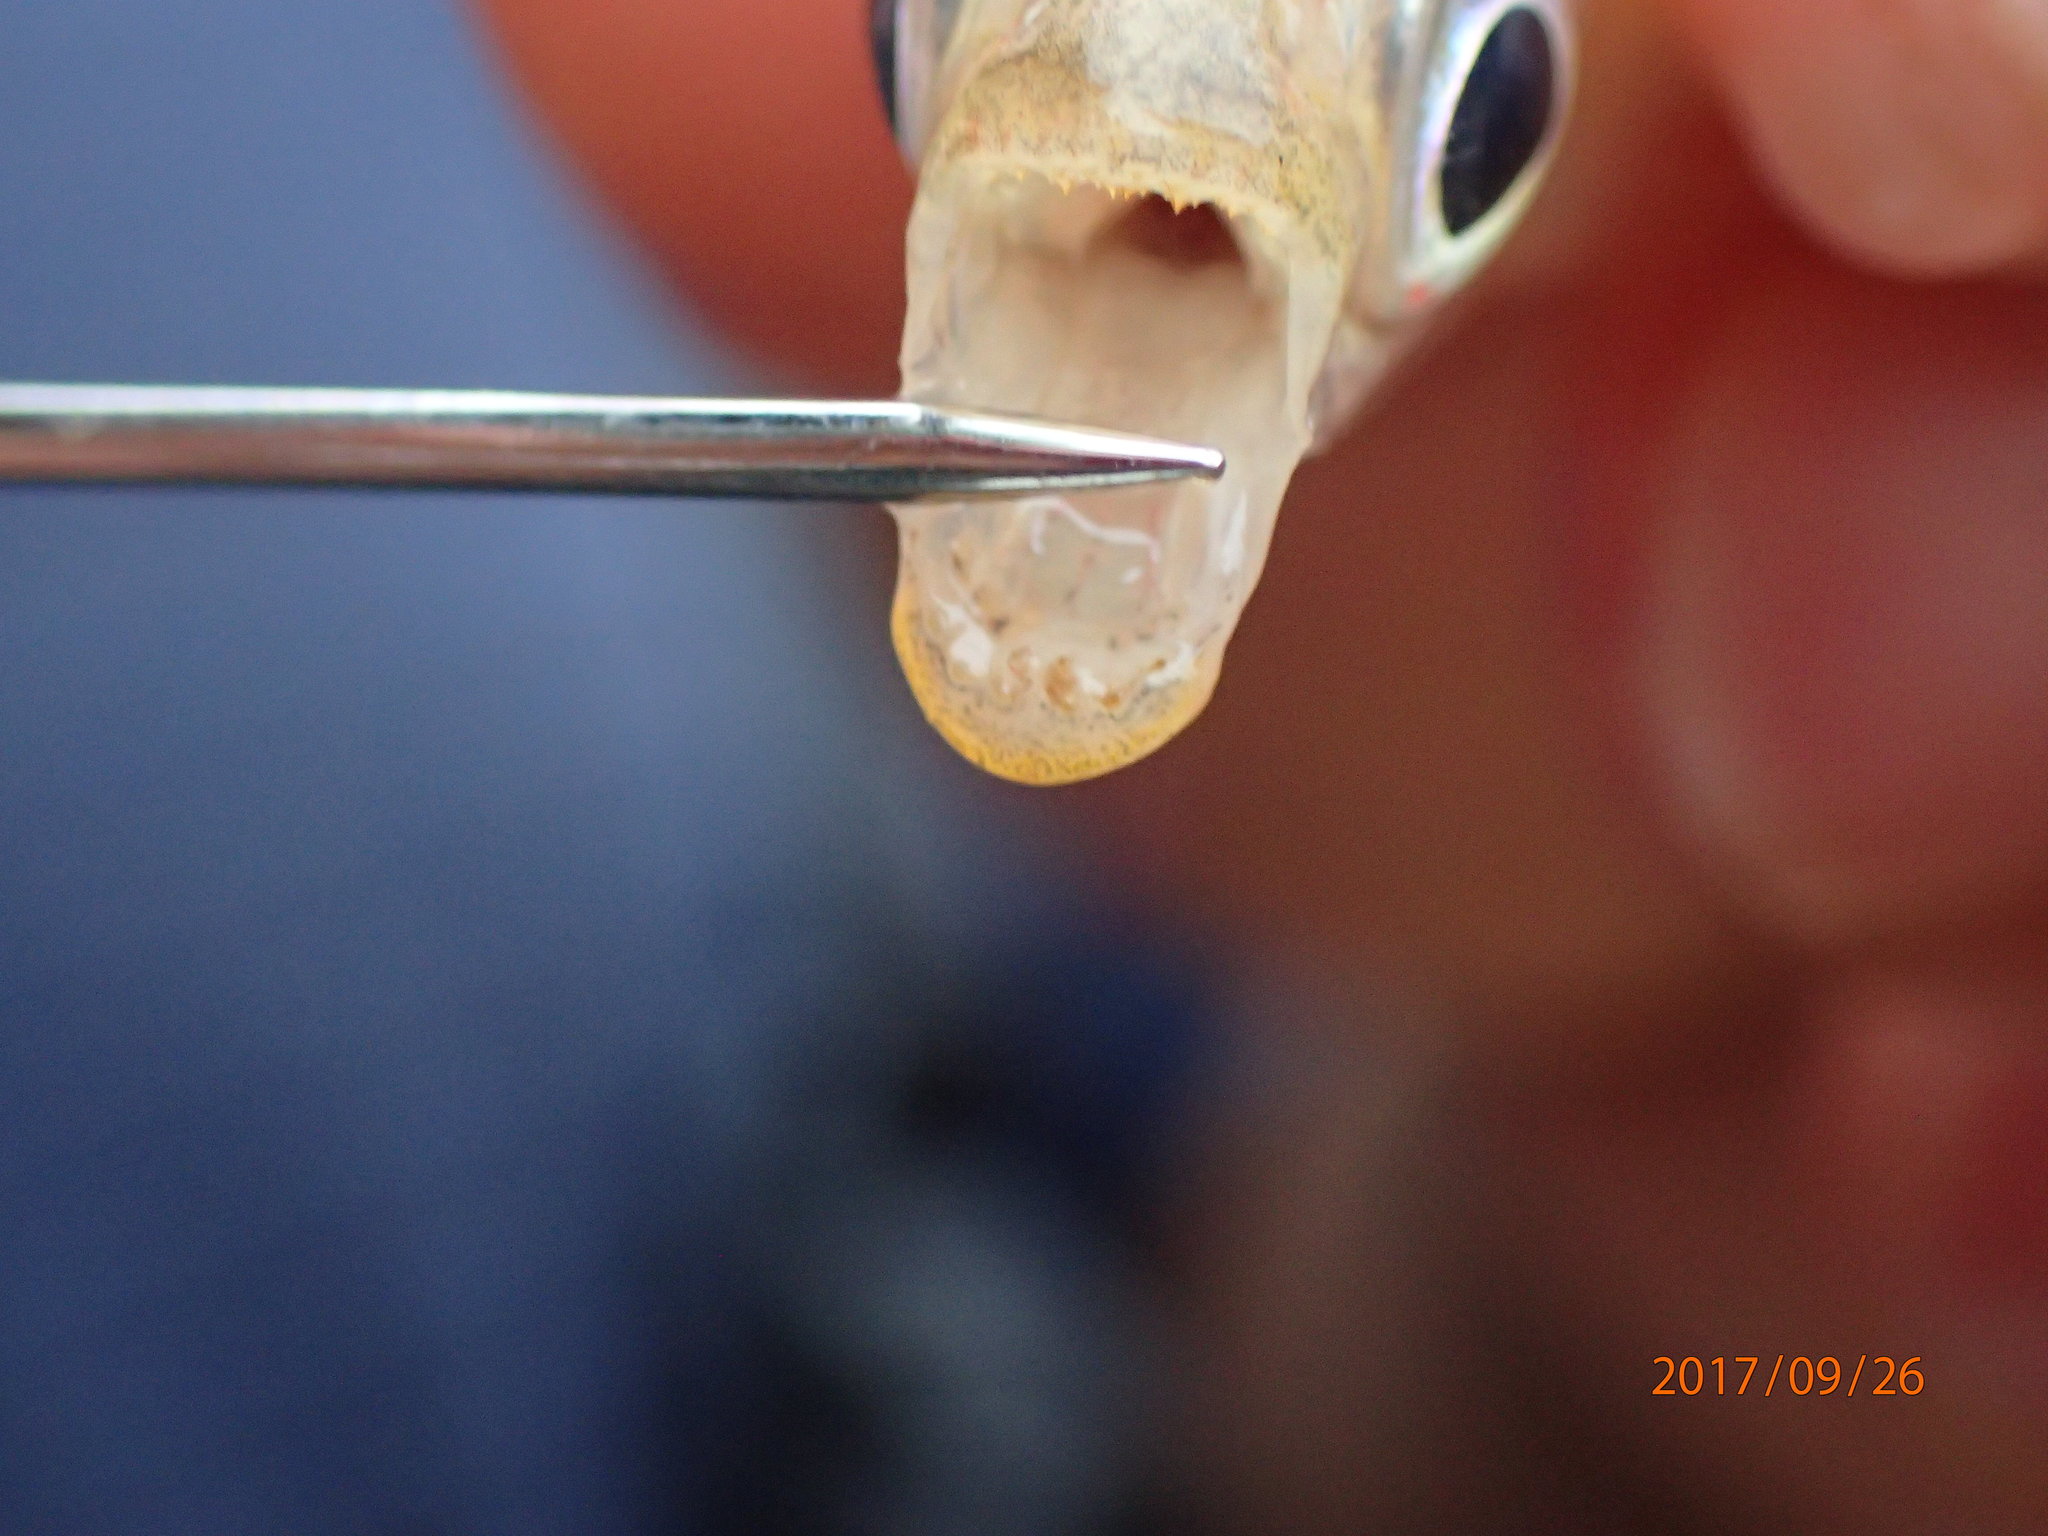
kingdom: Animalia
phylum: Chordata
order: Characiformes
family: Alestidae
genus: Alestes
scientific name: Alestes
